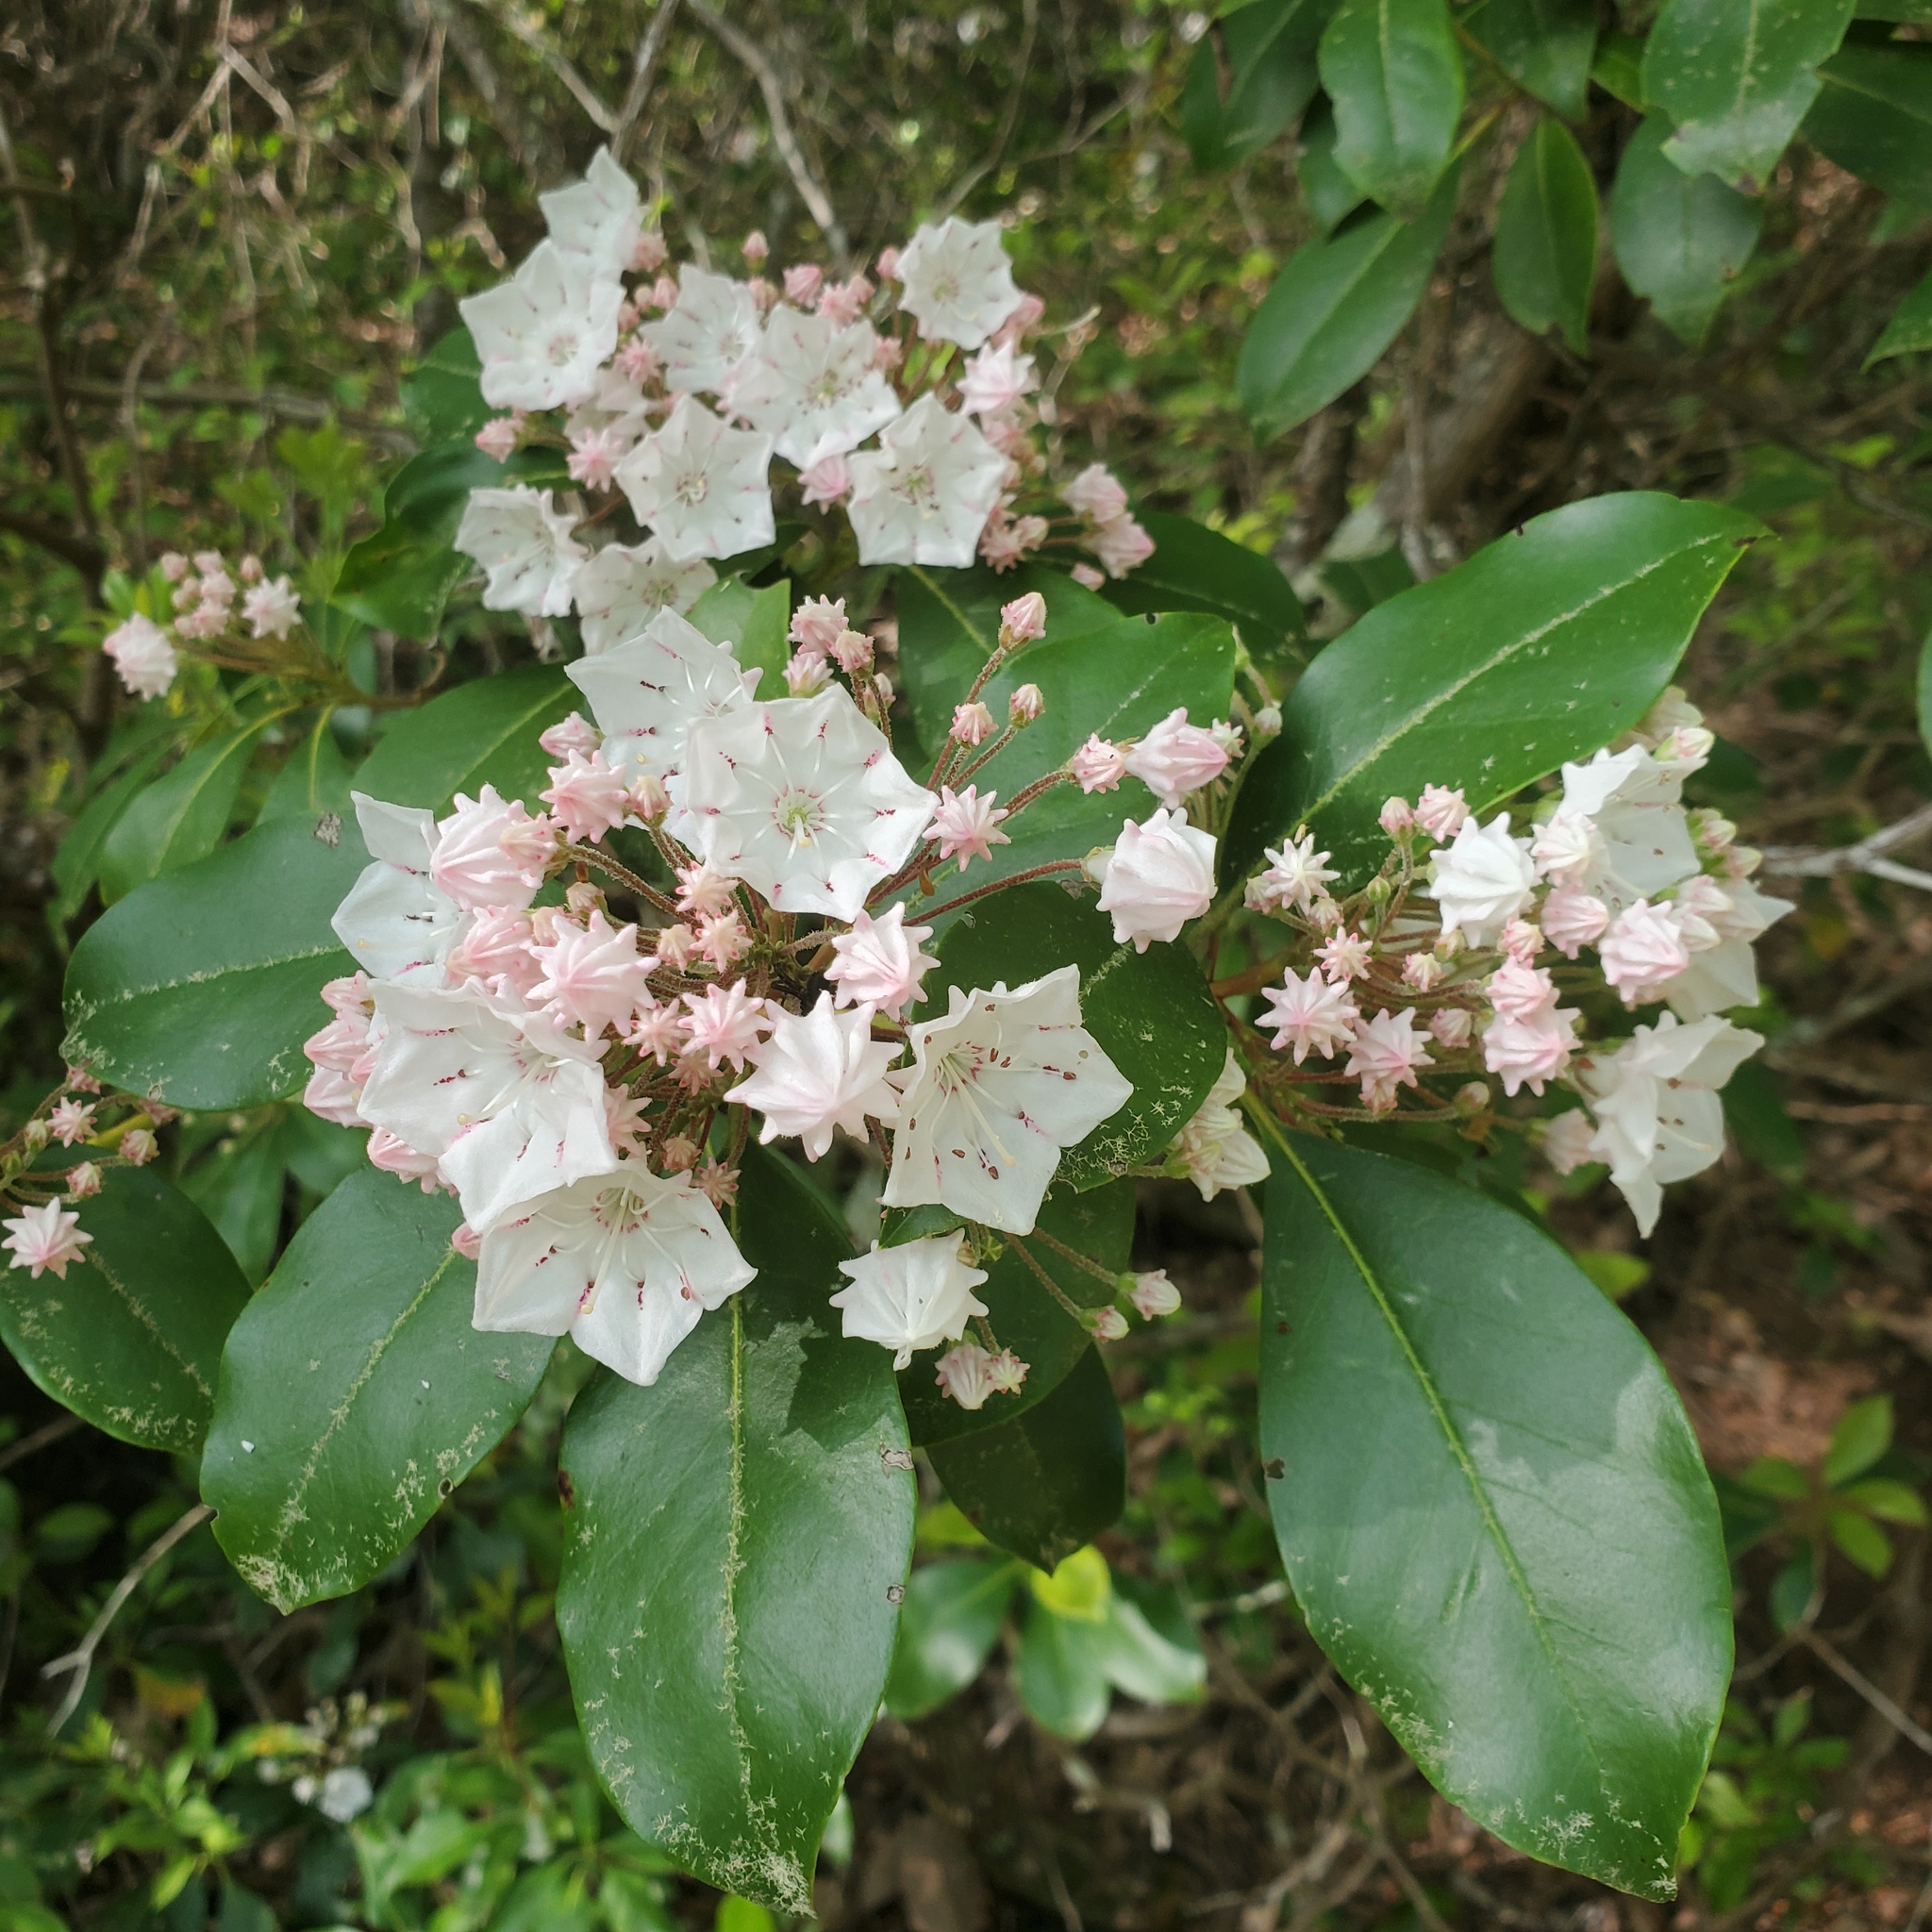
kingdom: Plantae
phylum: Tracheophyta
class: Magnoliopsida
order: Ericales
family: Ericaceae
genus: Kalmia
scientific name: Kalmia latifolia
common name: Mountain-laurel
